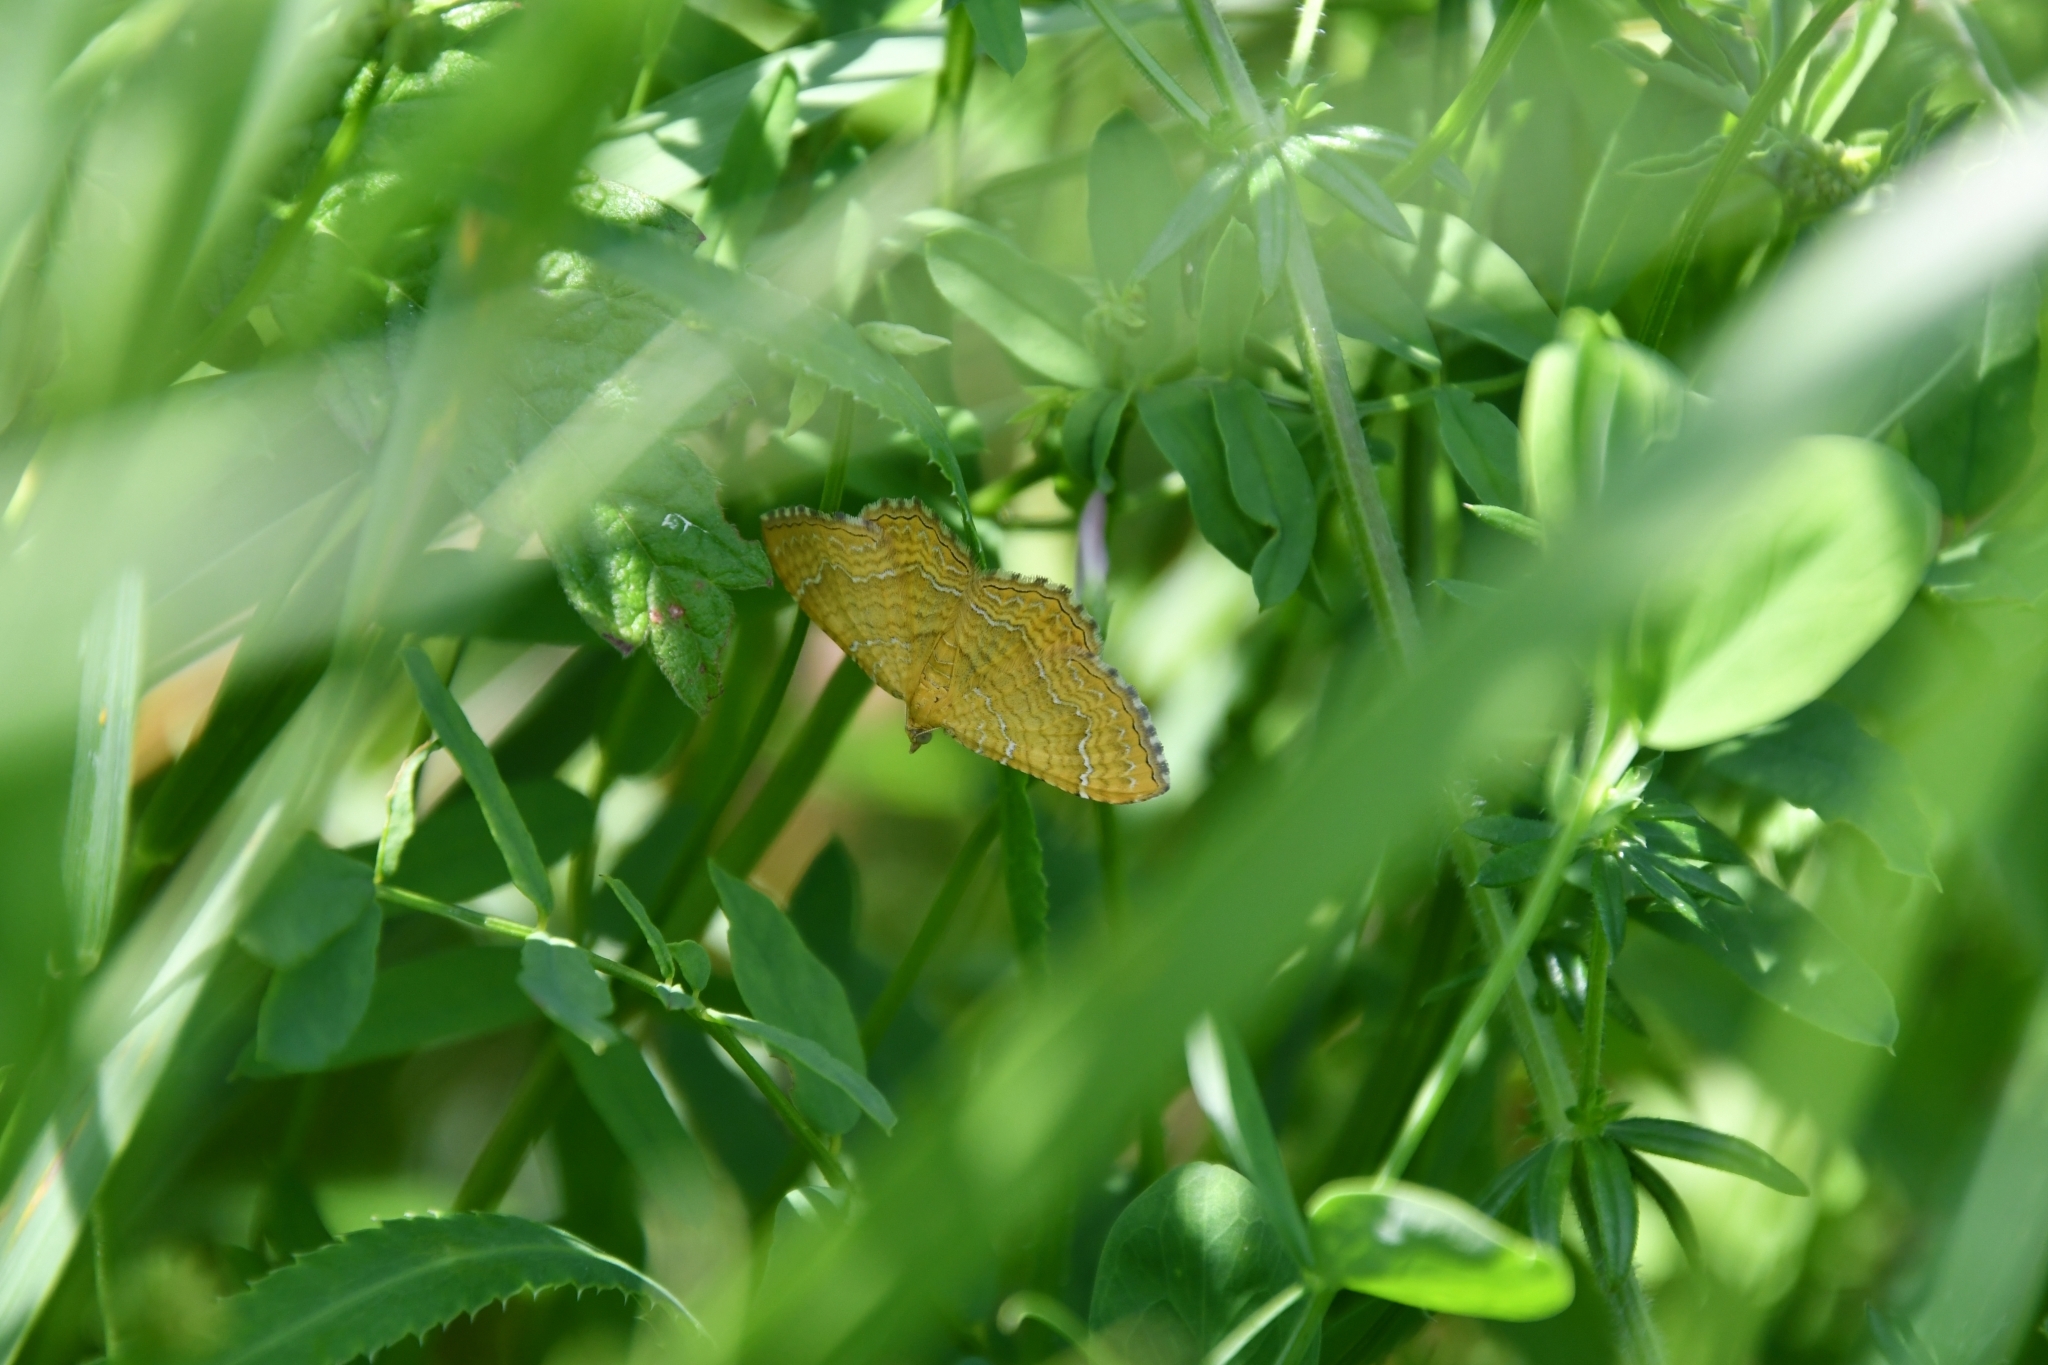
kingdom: Animalia
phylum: Arthropoda
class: Insecta
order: Lepidoptera
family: Geometridae
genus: Camptogramma
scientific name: Camptogramma bilineata
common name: Yellow shell
